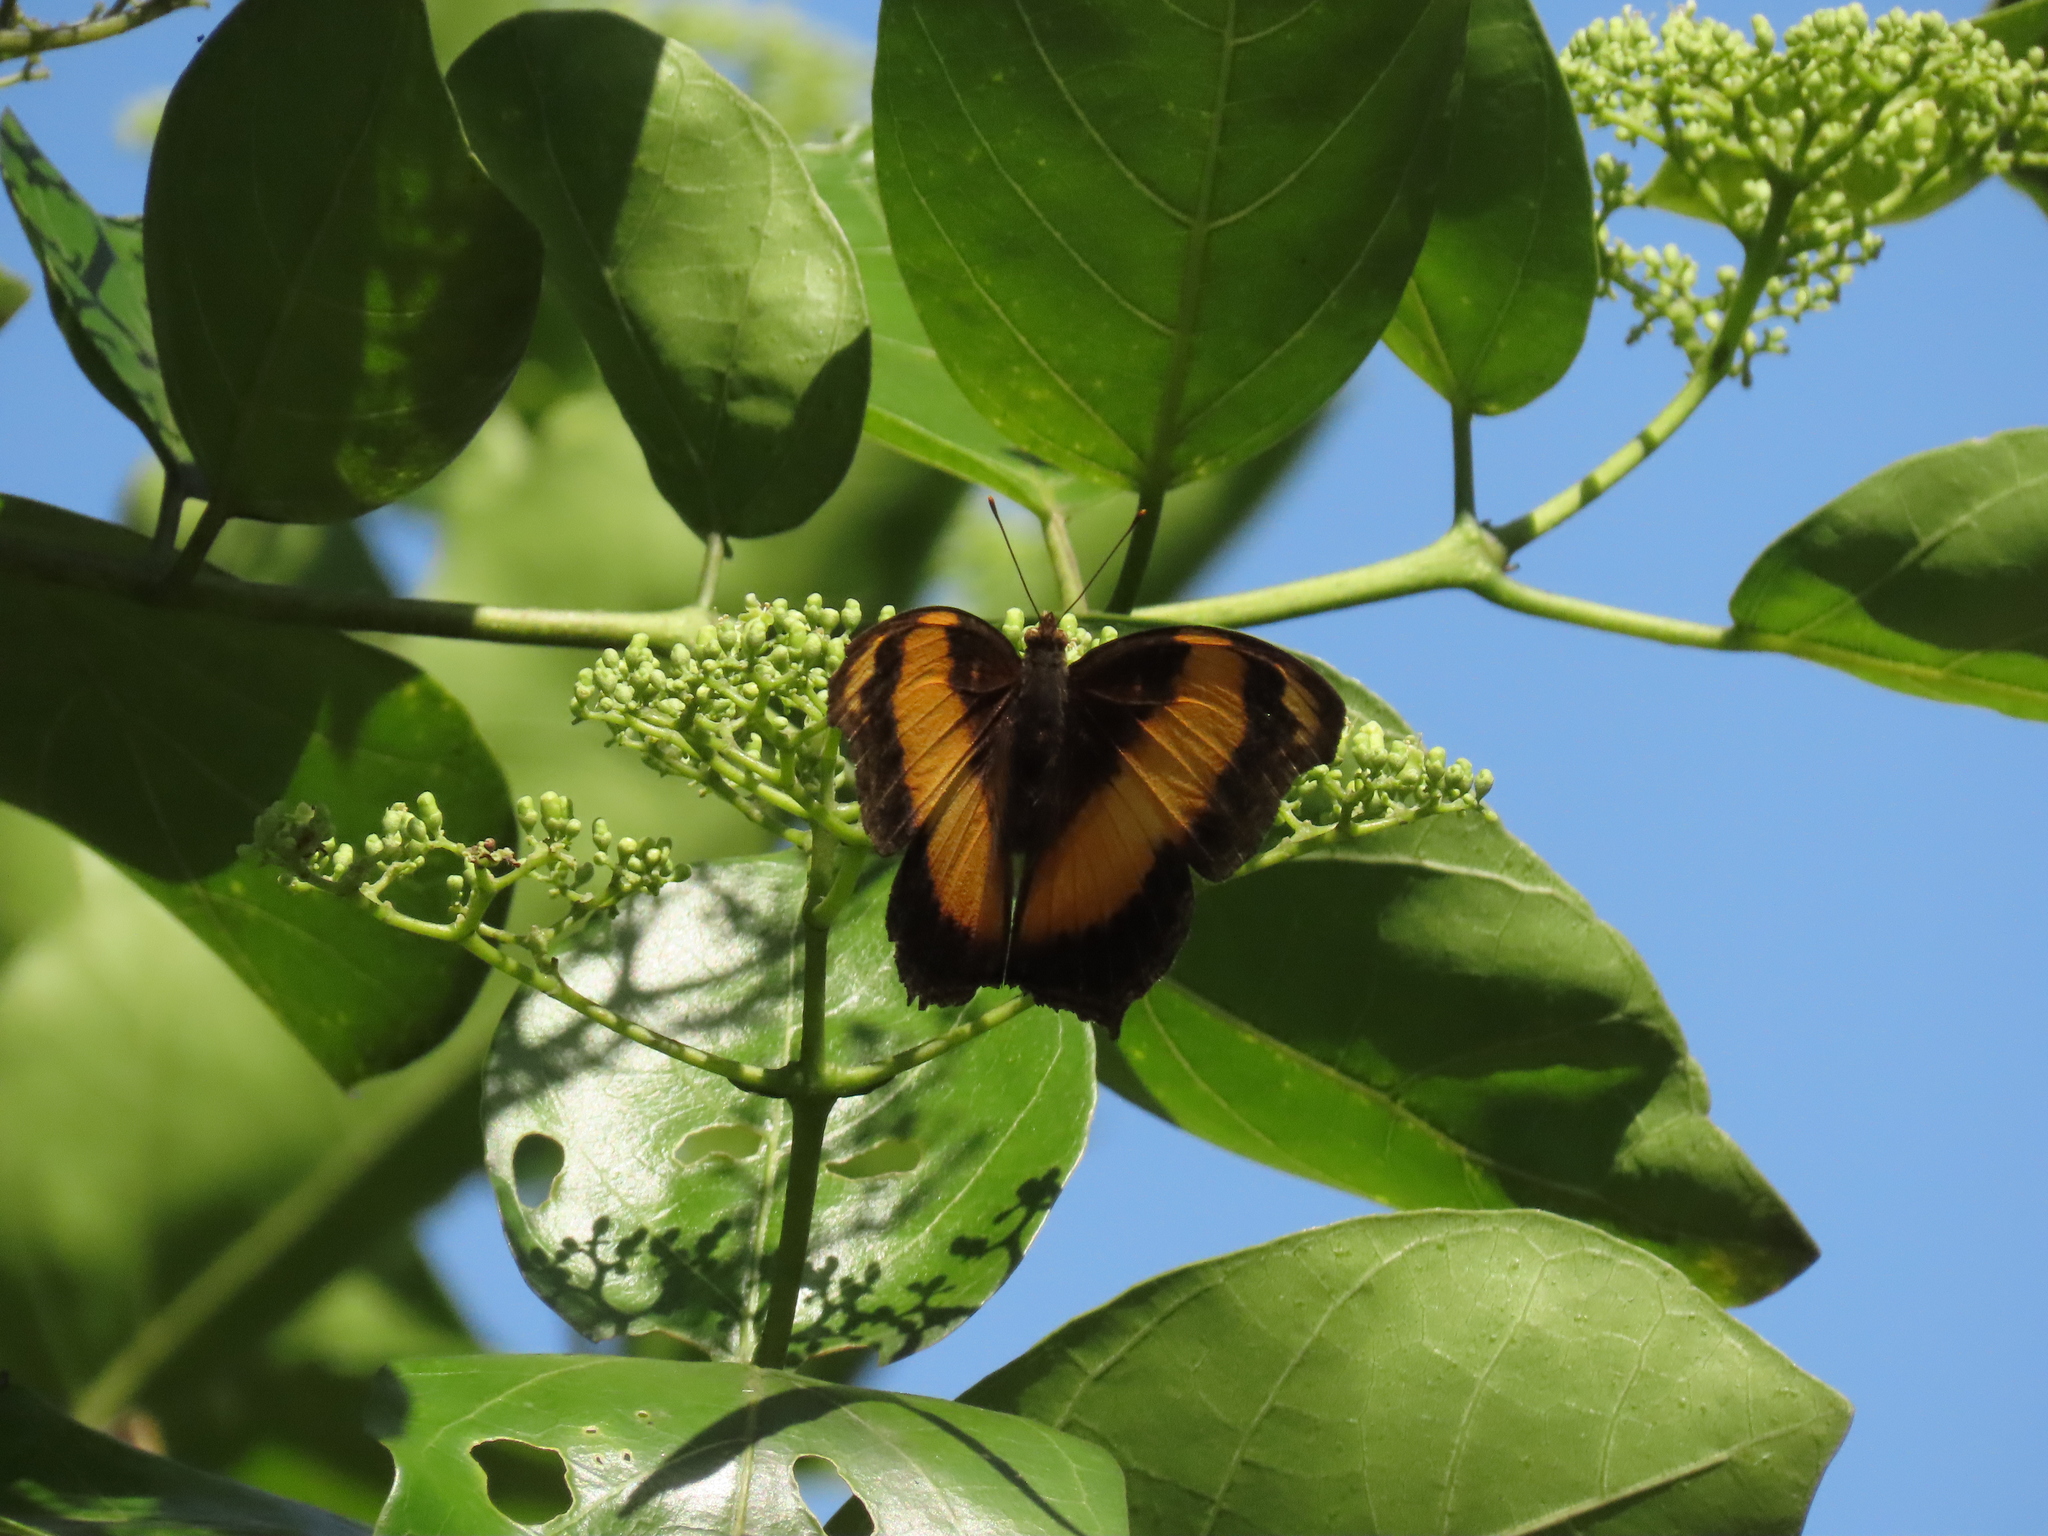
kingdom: Animalia
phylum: Arthropoda
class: Insecta
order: Lepidoptera
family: Nymphalidae
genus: Yoma
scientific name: Yoma sabina
